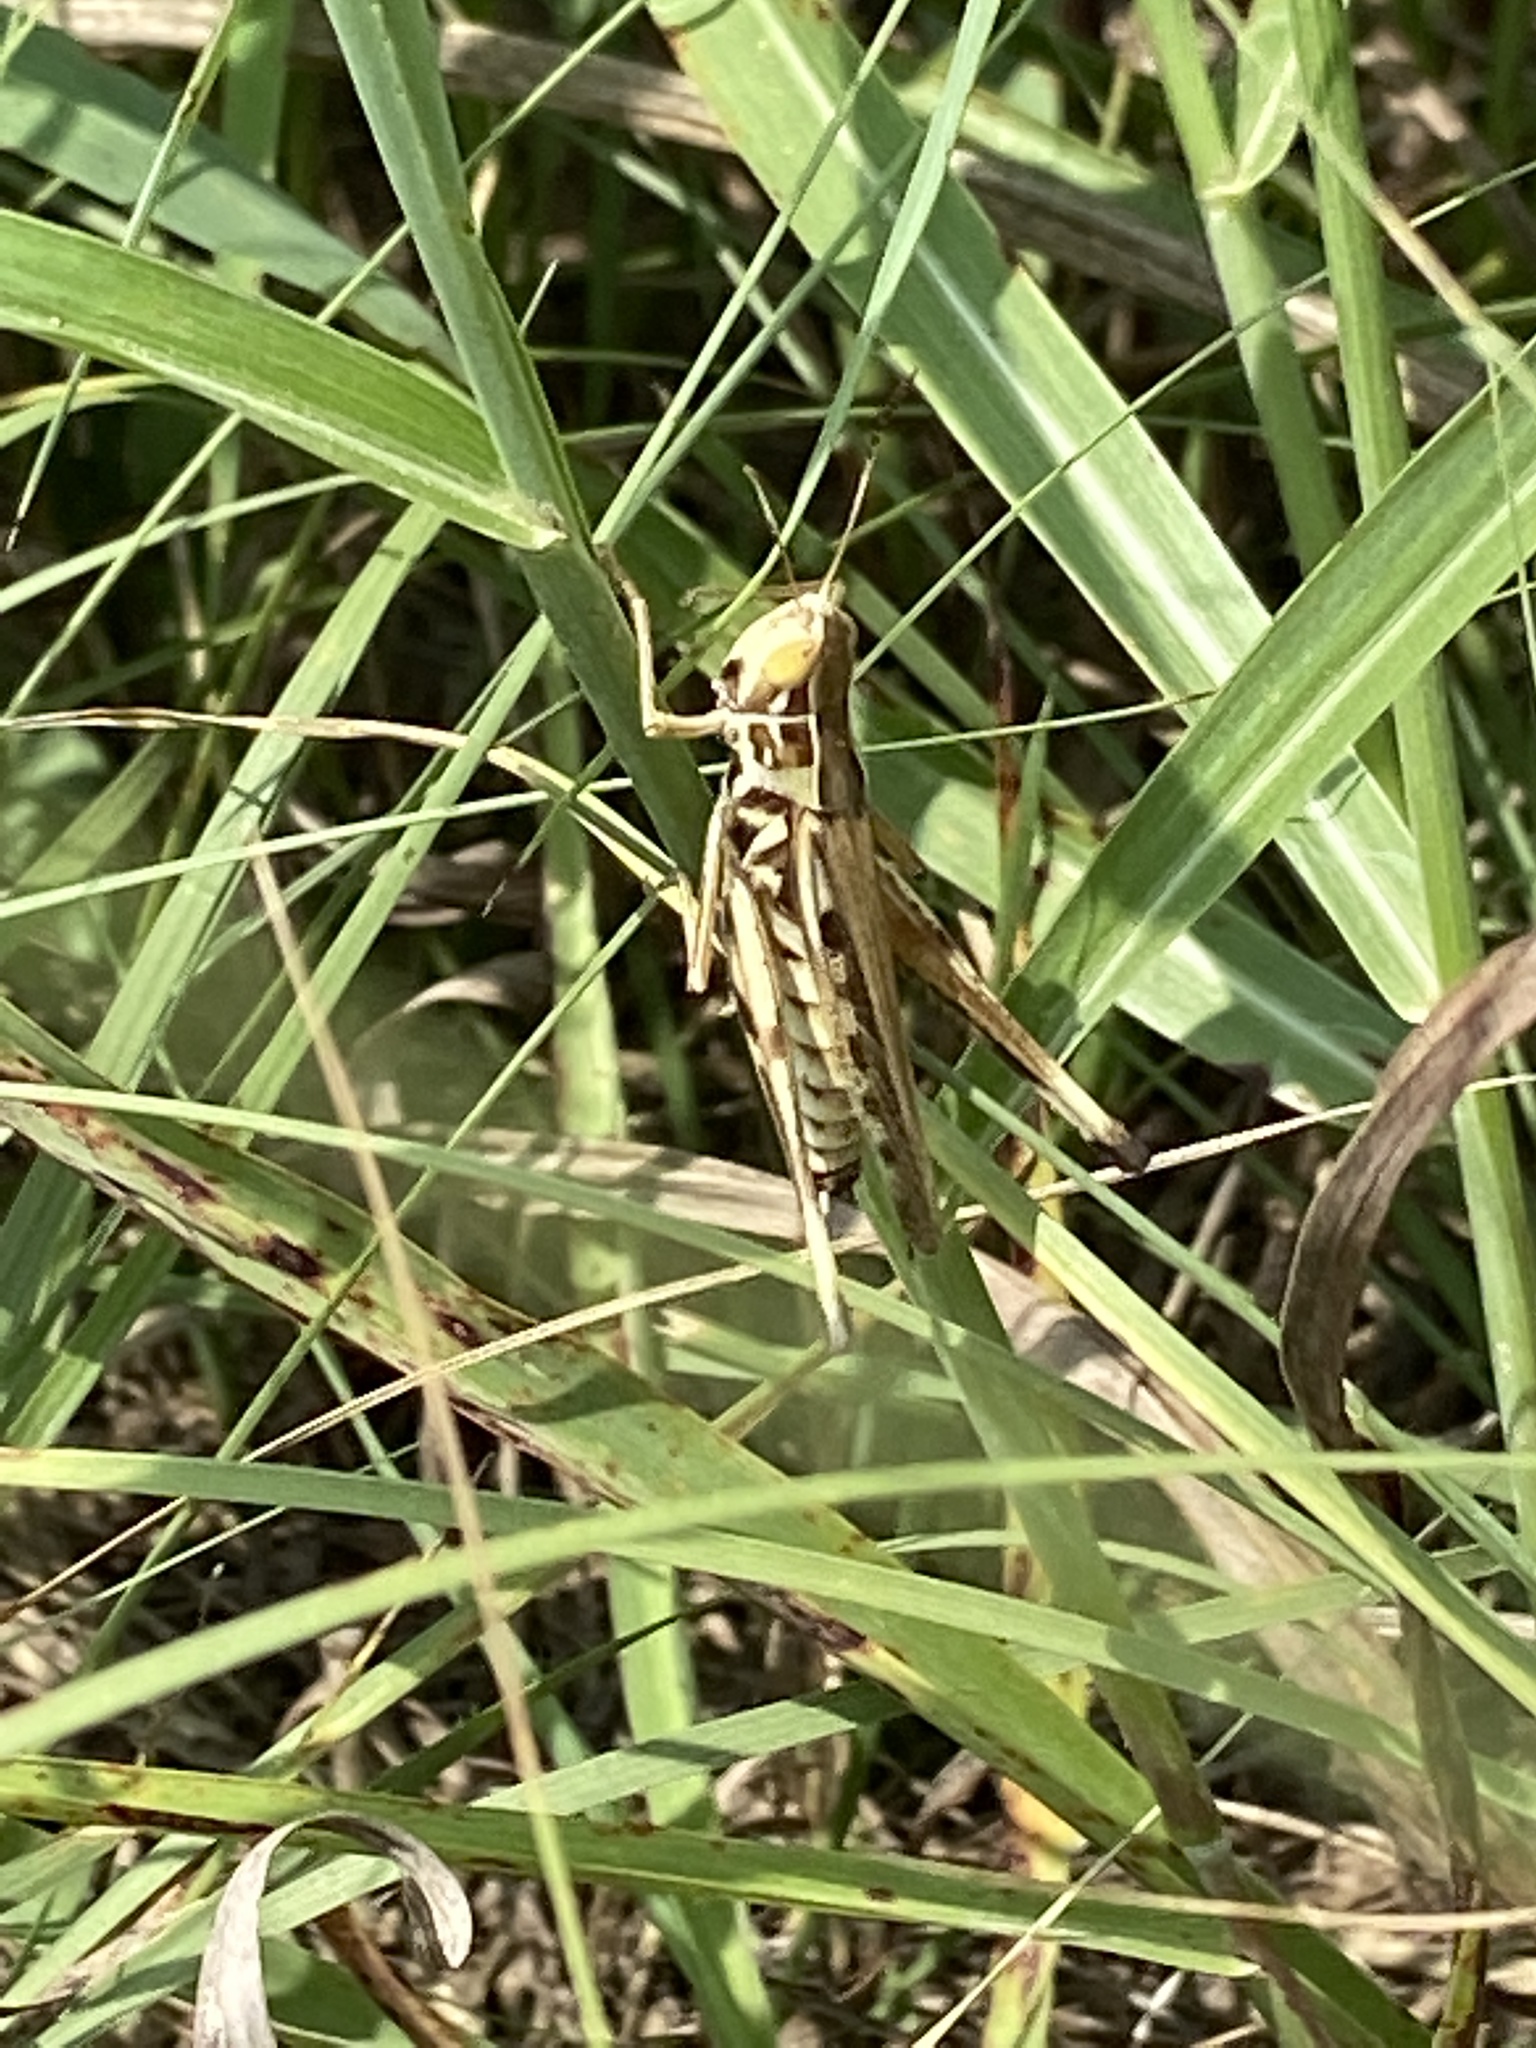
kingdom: Animalia
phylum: Arthropoda
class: Insecta
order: Orthoptera
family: Acrididae
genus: Syrbula
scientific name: Syrbula admirabilis
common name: Handsome grasshopper
